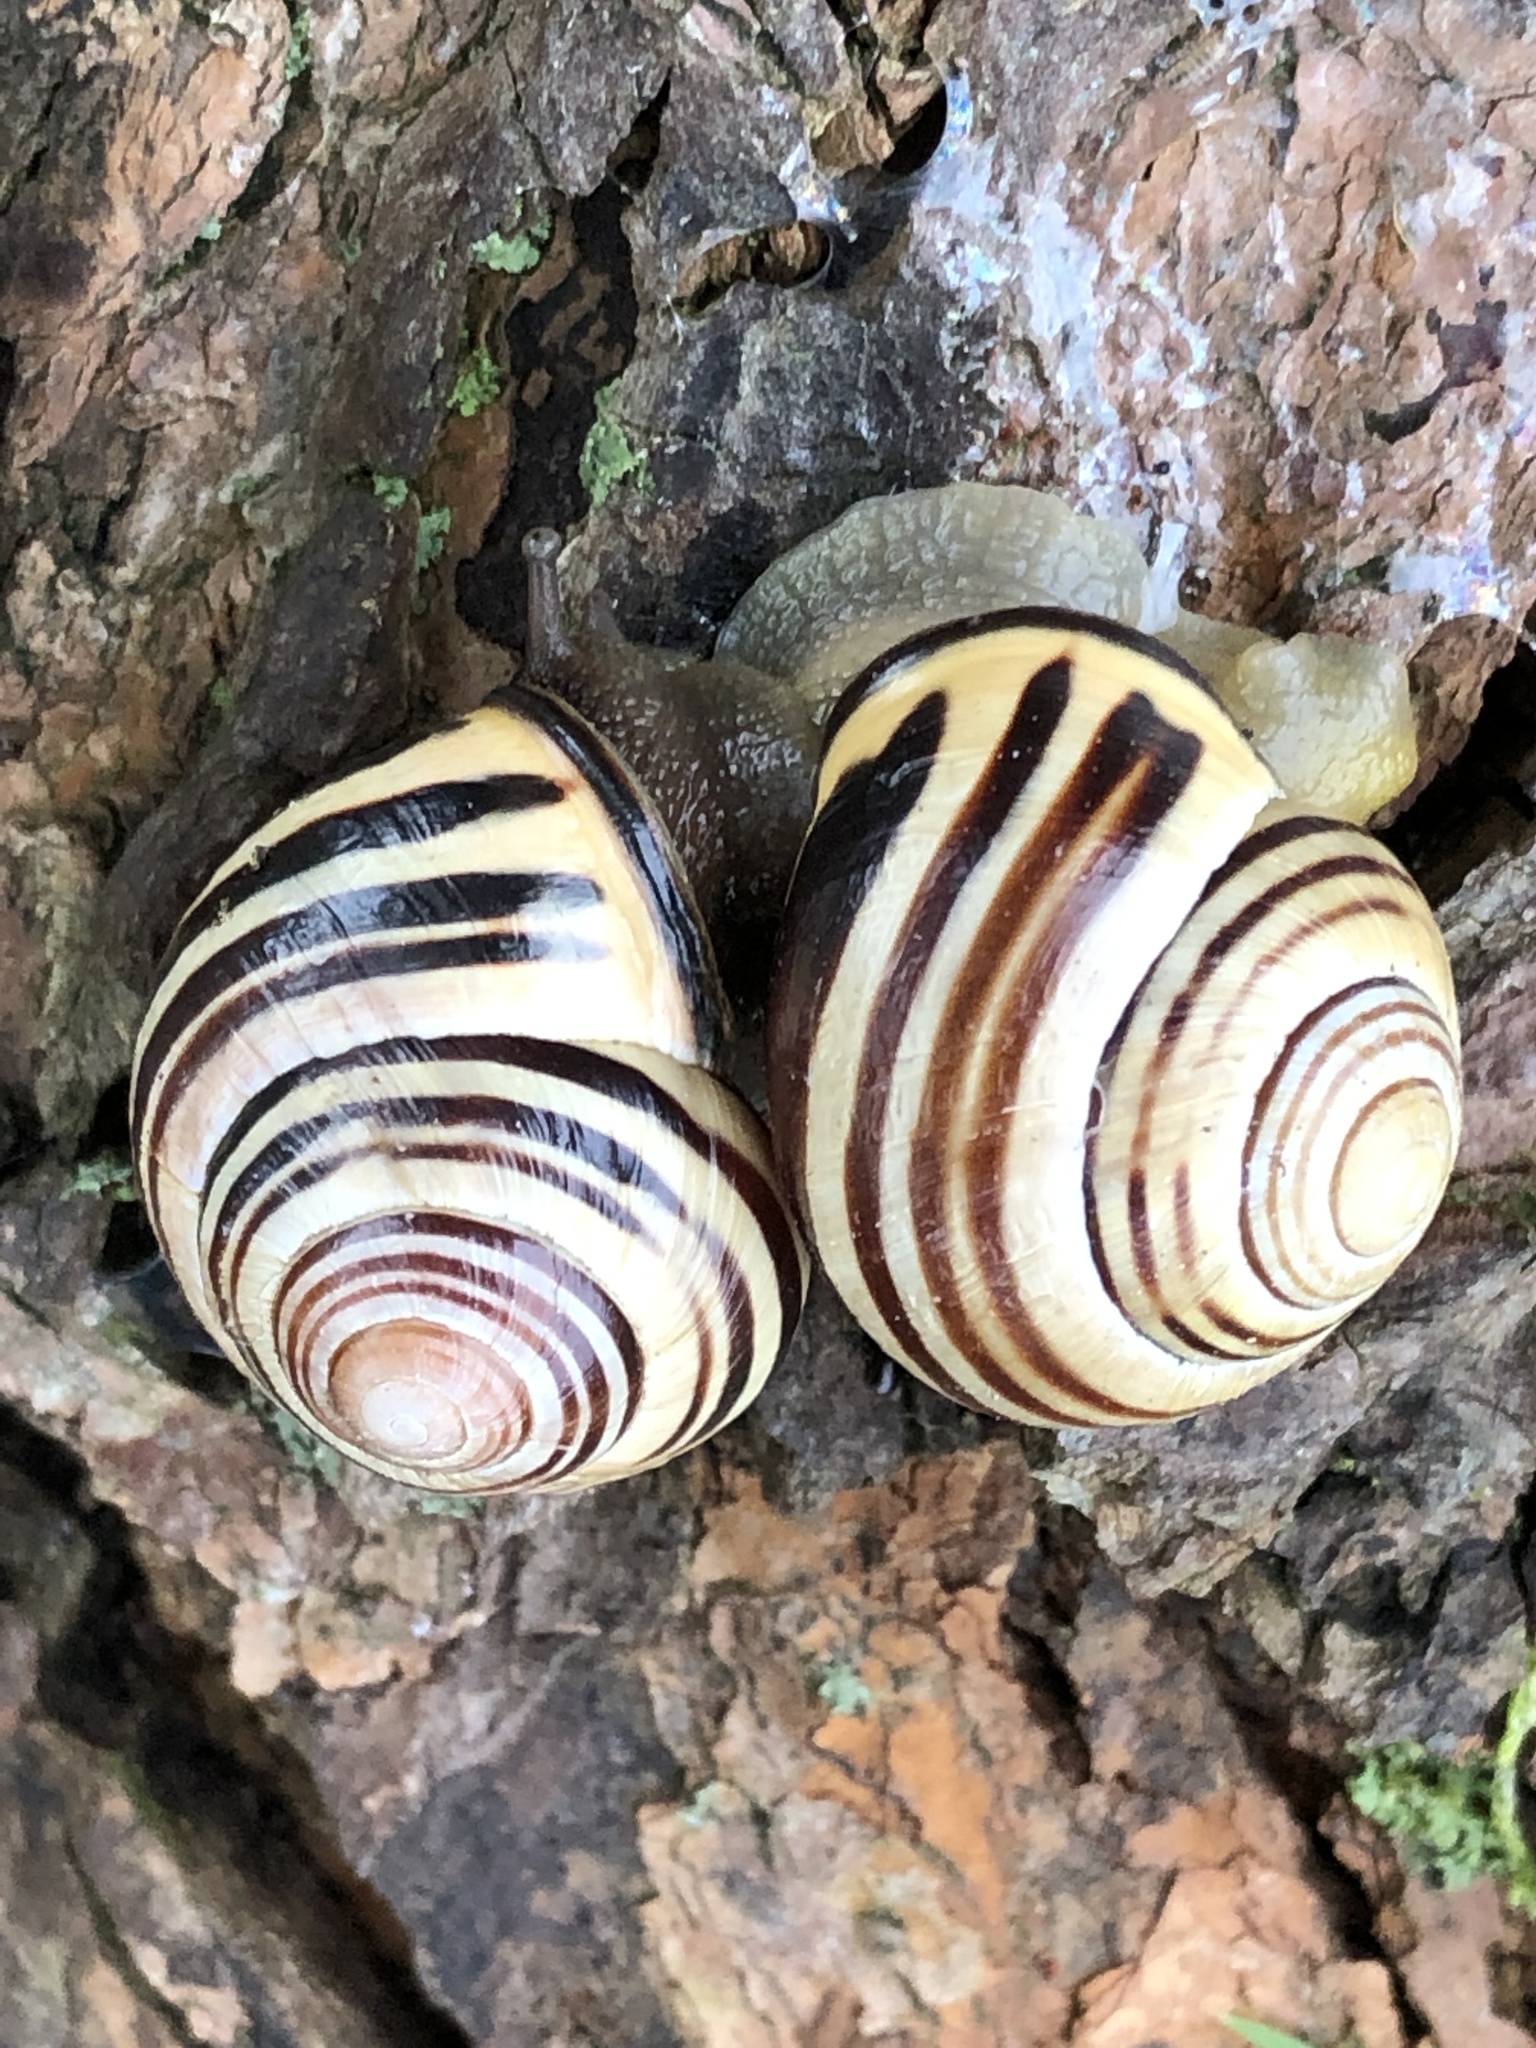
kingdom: Animalia
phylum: Mollusca
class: Gastropoda
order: Stylommatophora
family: Helicidae
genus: Cepaea
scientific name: Cepaea nemoralis
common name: Grovesnail
